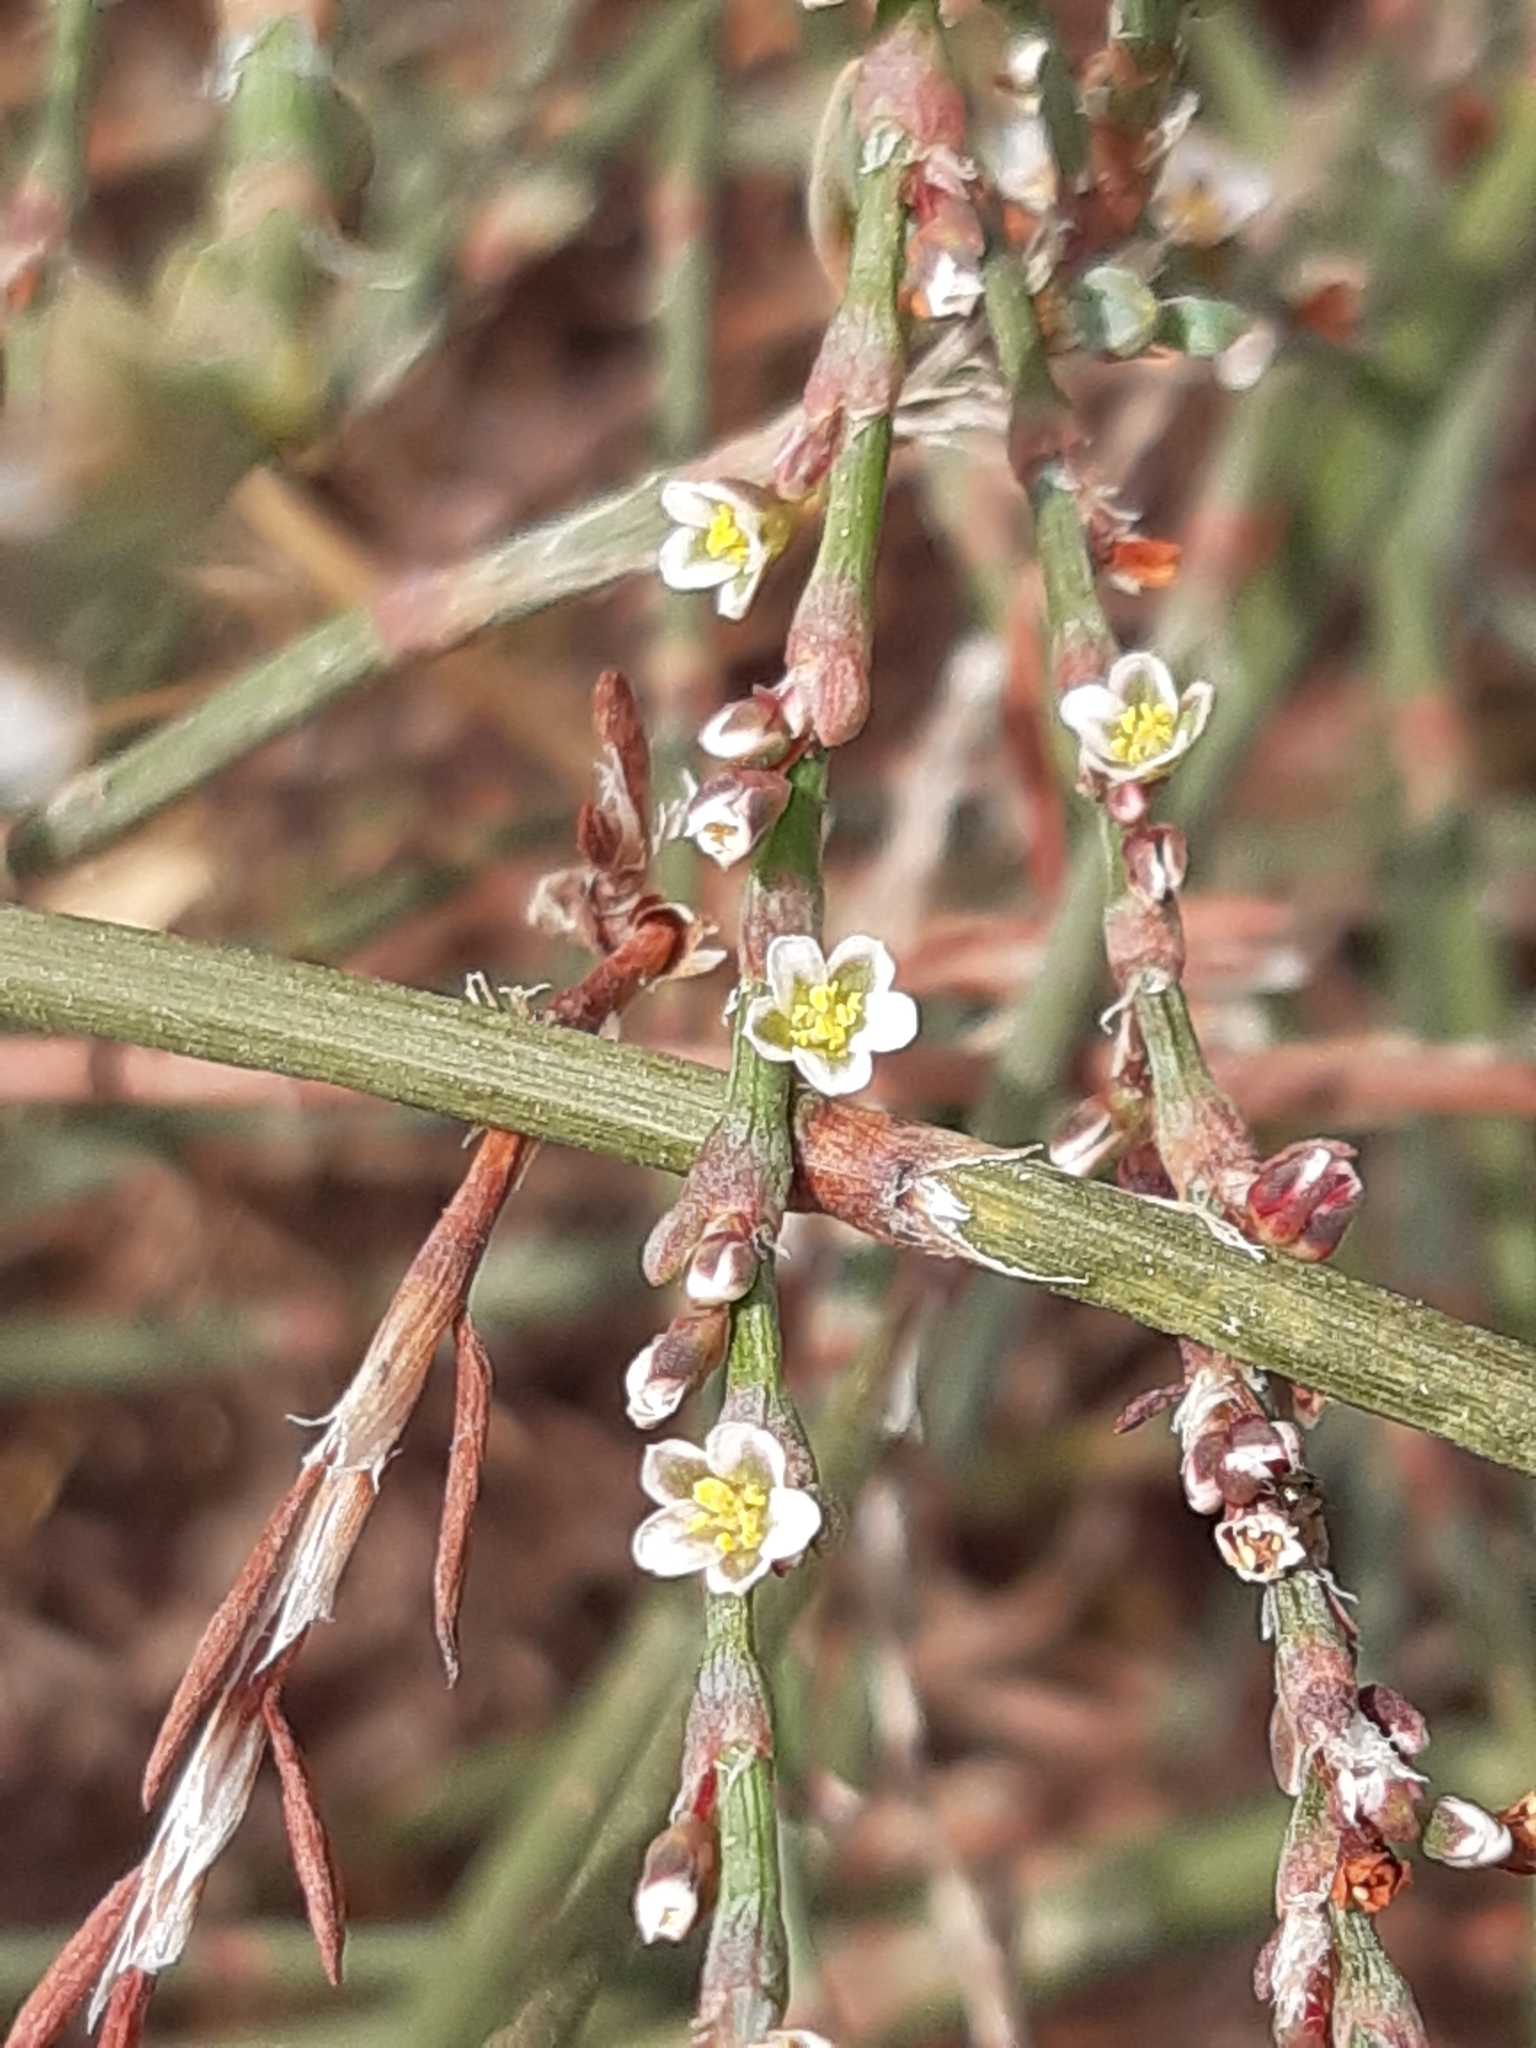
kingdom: Plantae
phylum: Tracheophyta
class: Magnoliopsida
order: Caryophyllales
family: Polygonaceae
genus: Polygonum
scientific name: Polygonum equisetiforme
